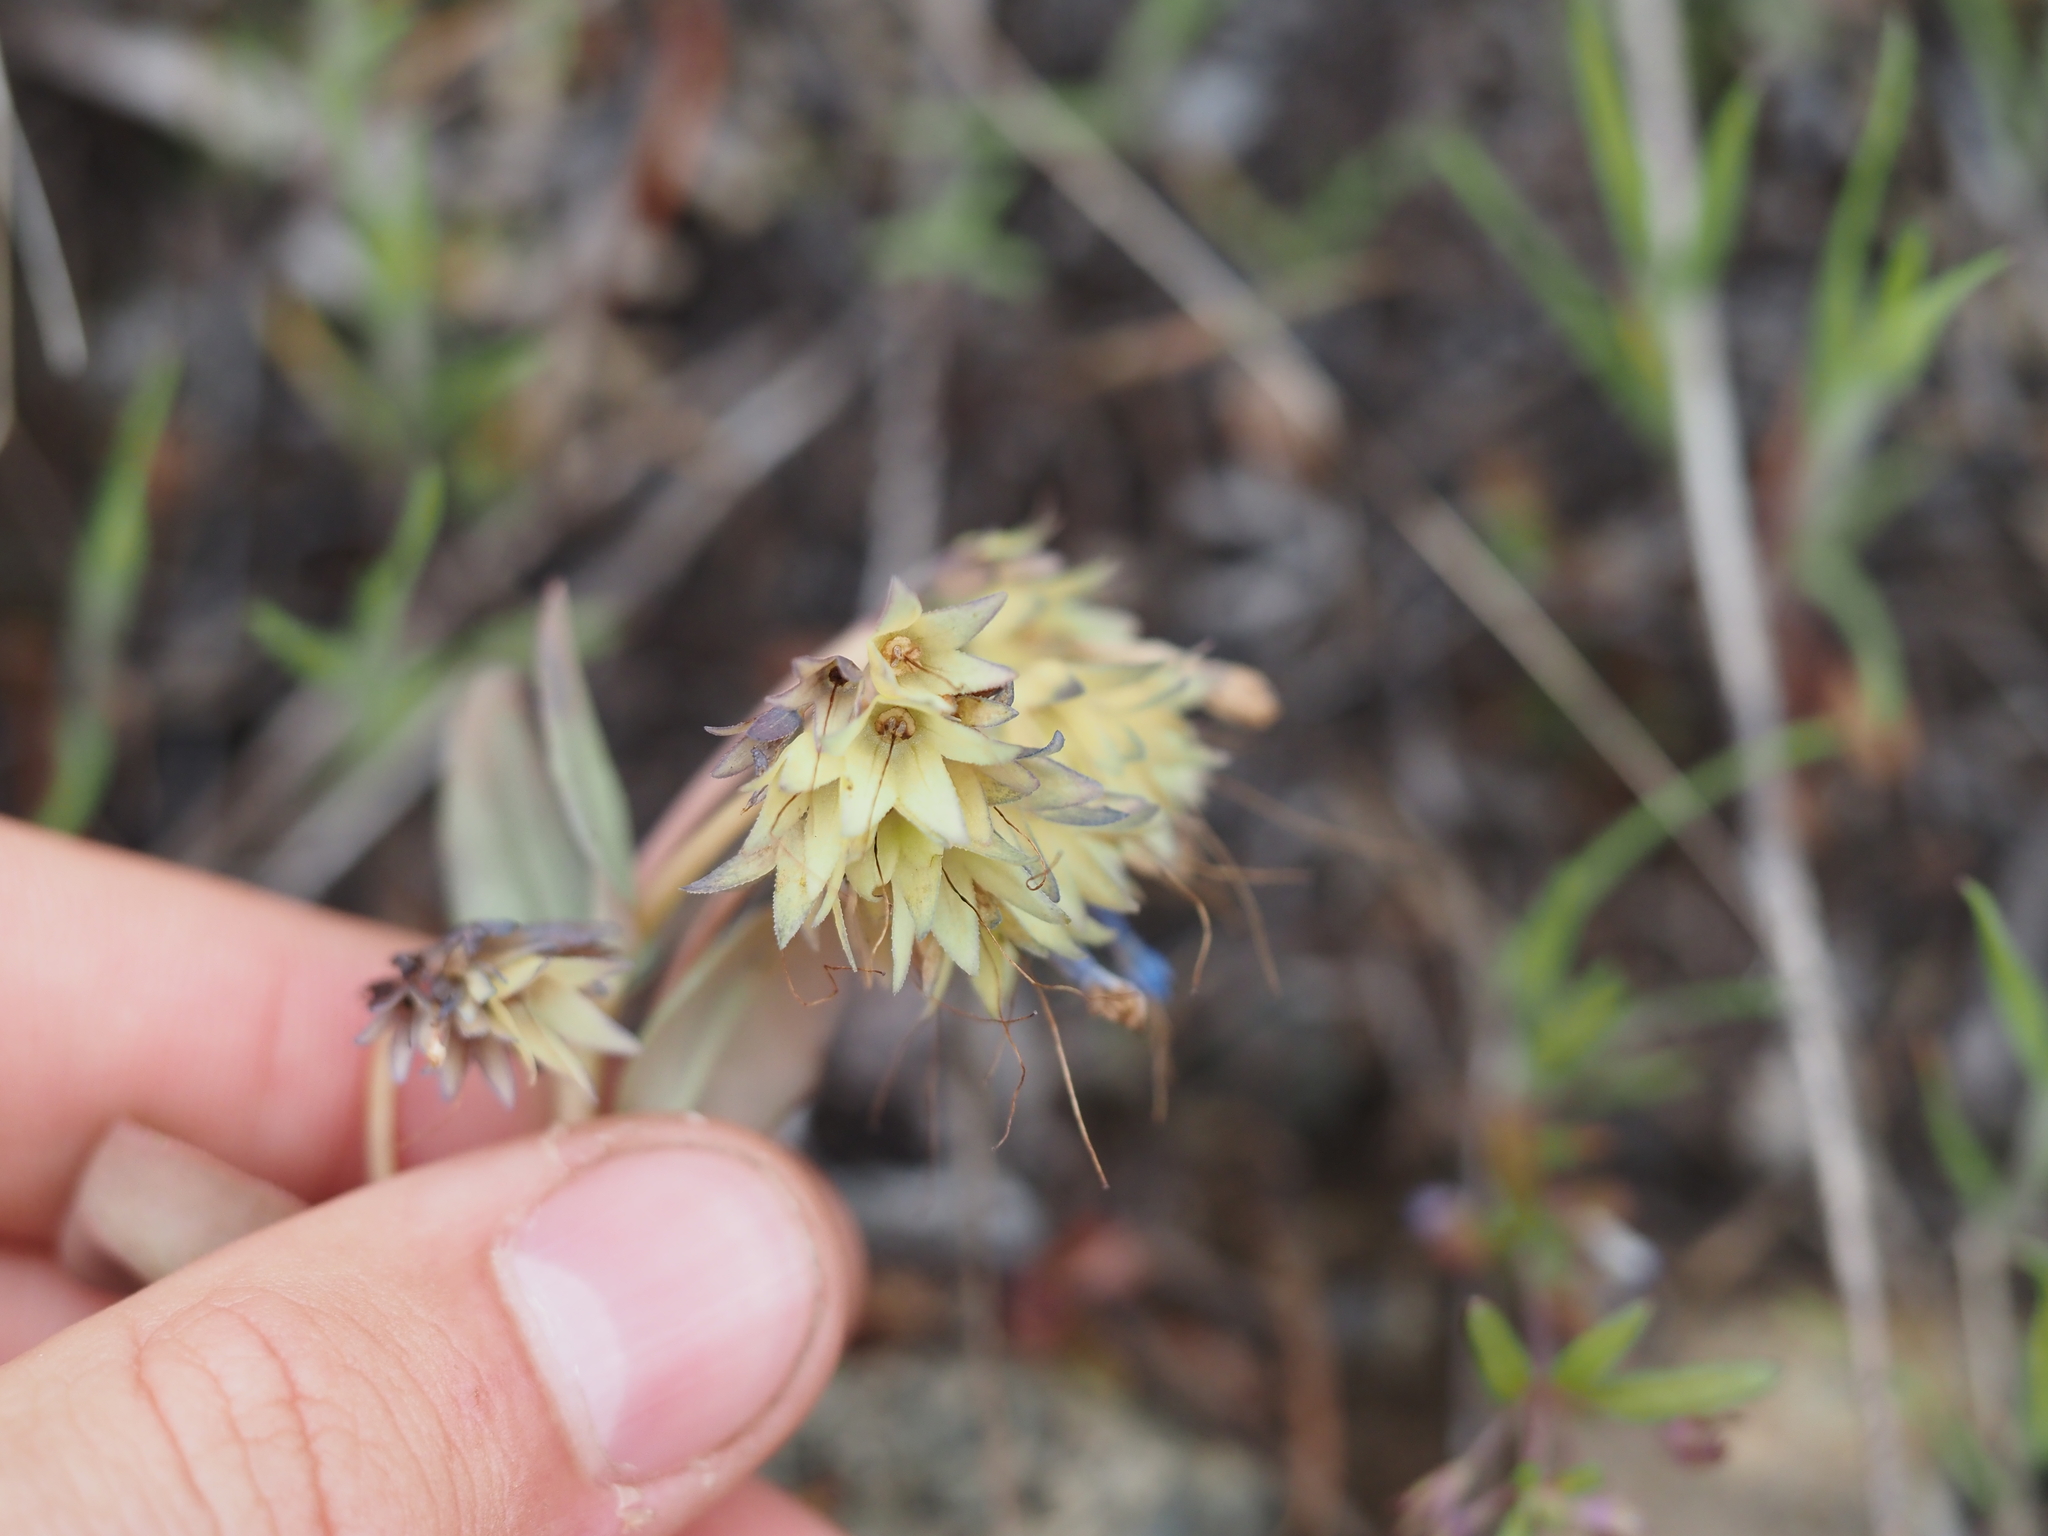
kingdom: Plantae
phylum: Tracheophyta
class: Magnoliopsida
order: Boraginales
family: Boraginaceae
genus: Mertensia
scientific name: Mertensia longiflora
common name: Large-flowered bluebells
